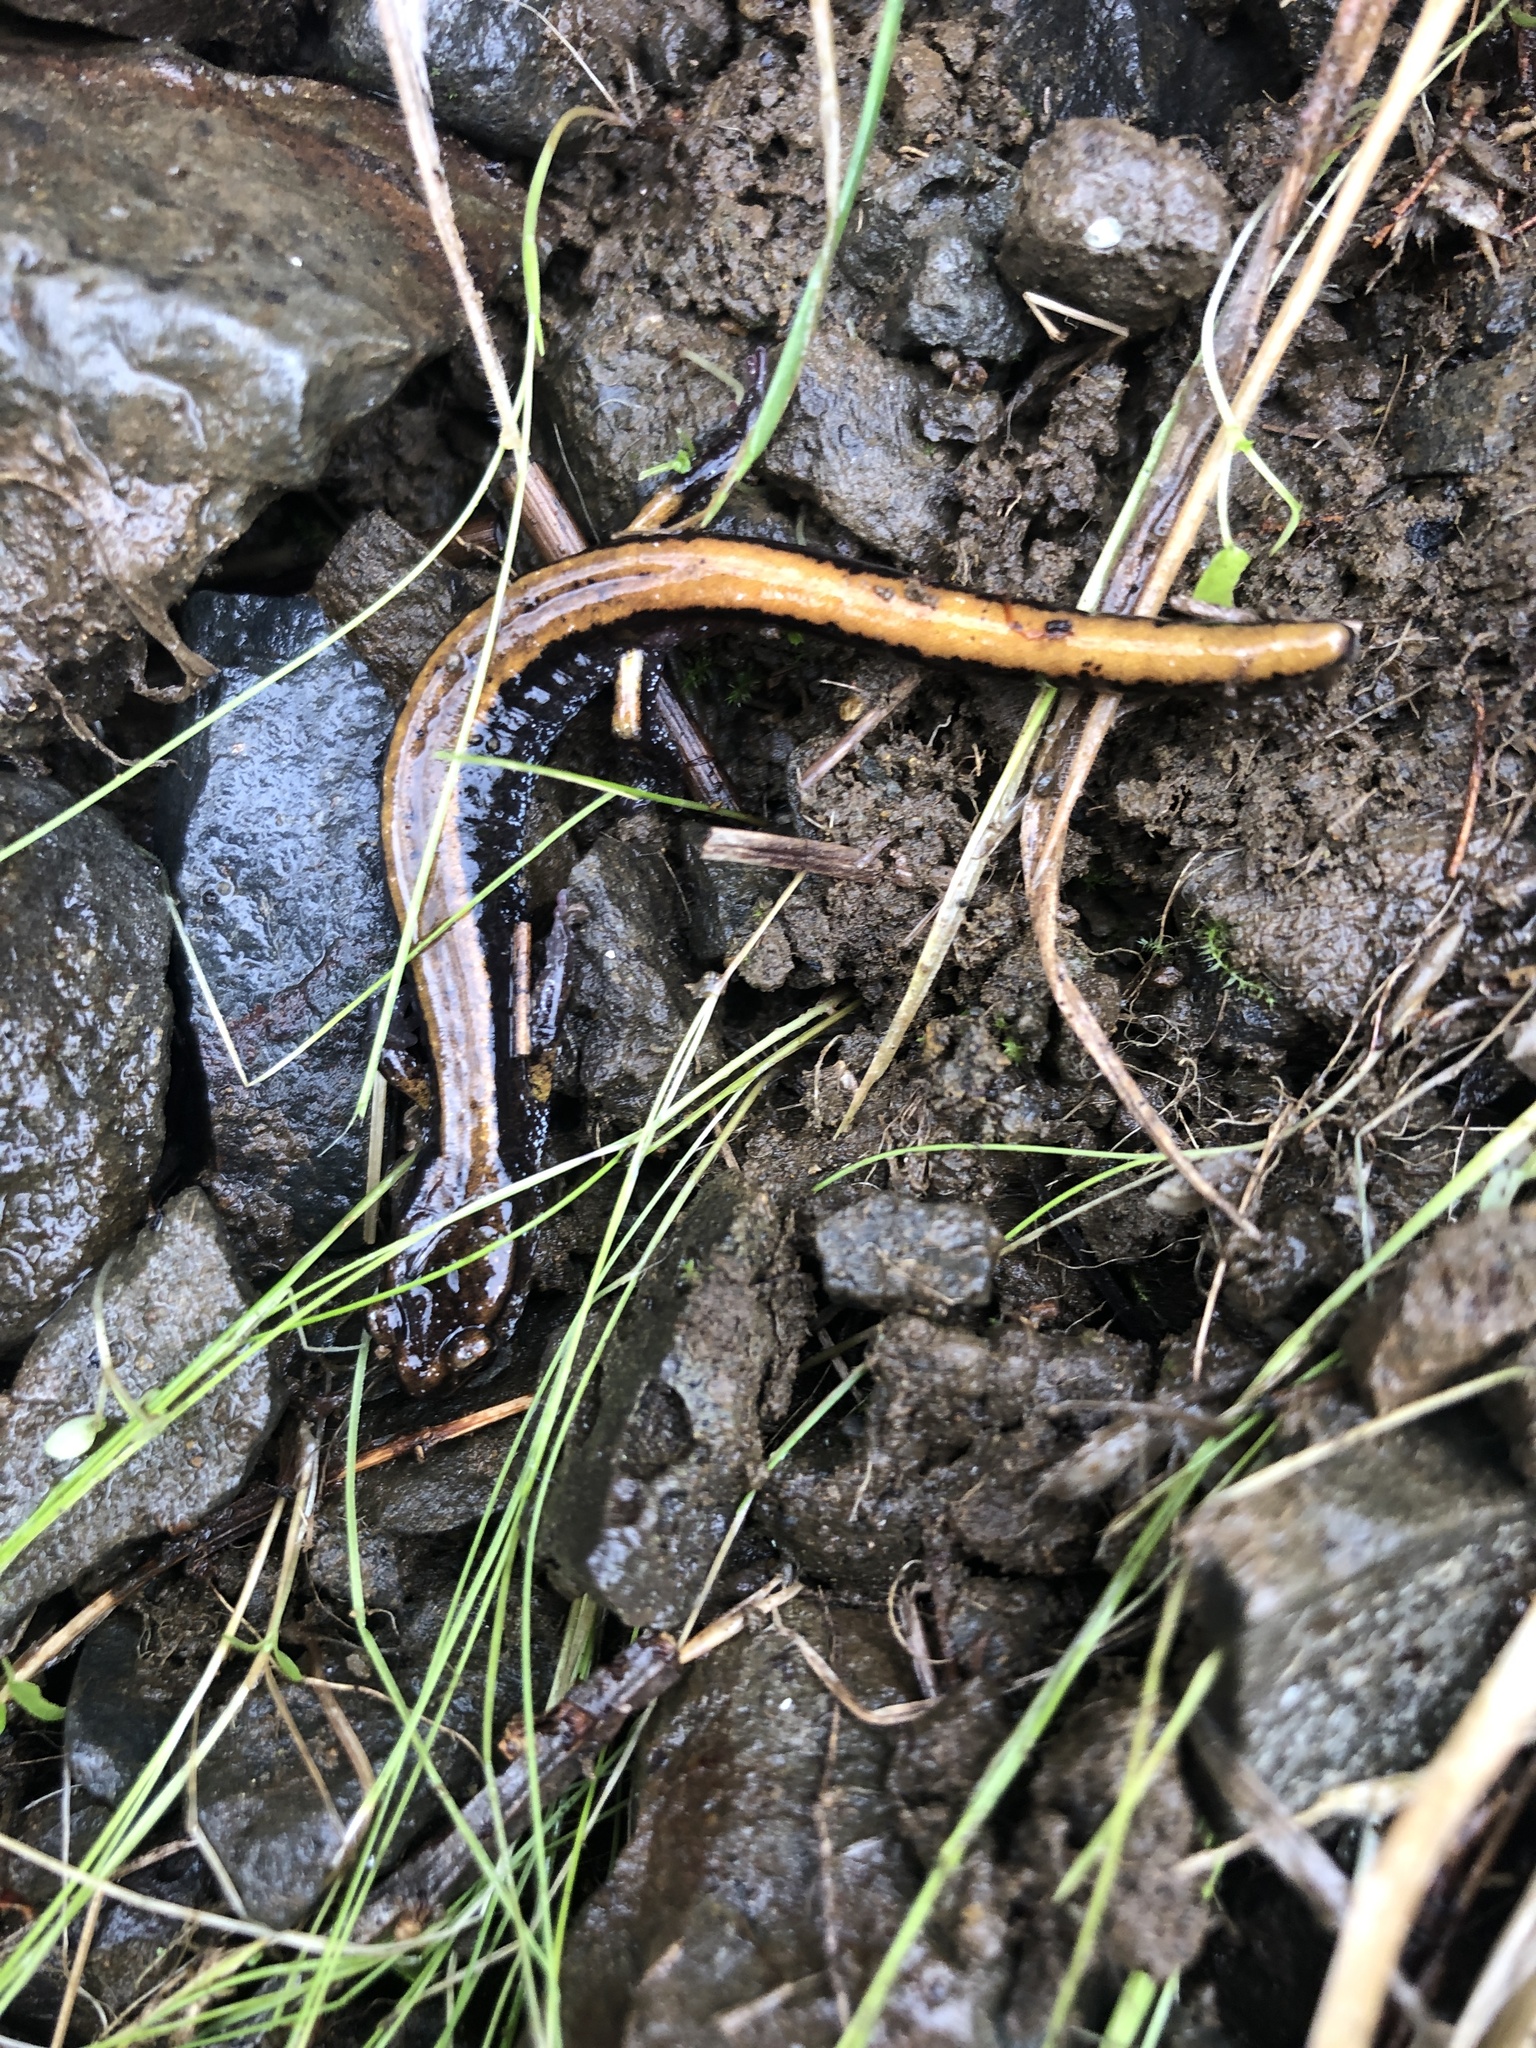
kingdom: Animalia
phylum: Chordata
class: Amphibia
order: Caudata
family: Plethodontidae
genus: Plethodon
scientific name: Plethodon vehiculum
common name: Western red-backed salamander
